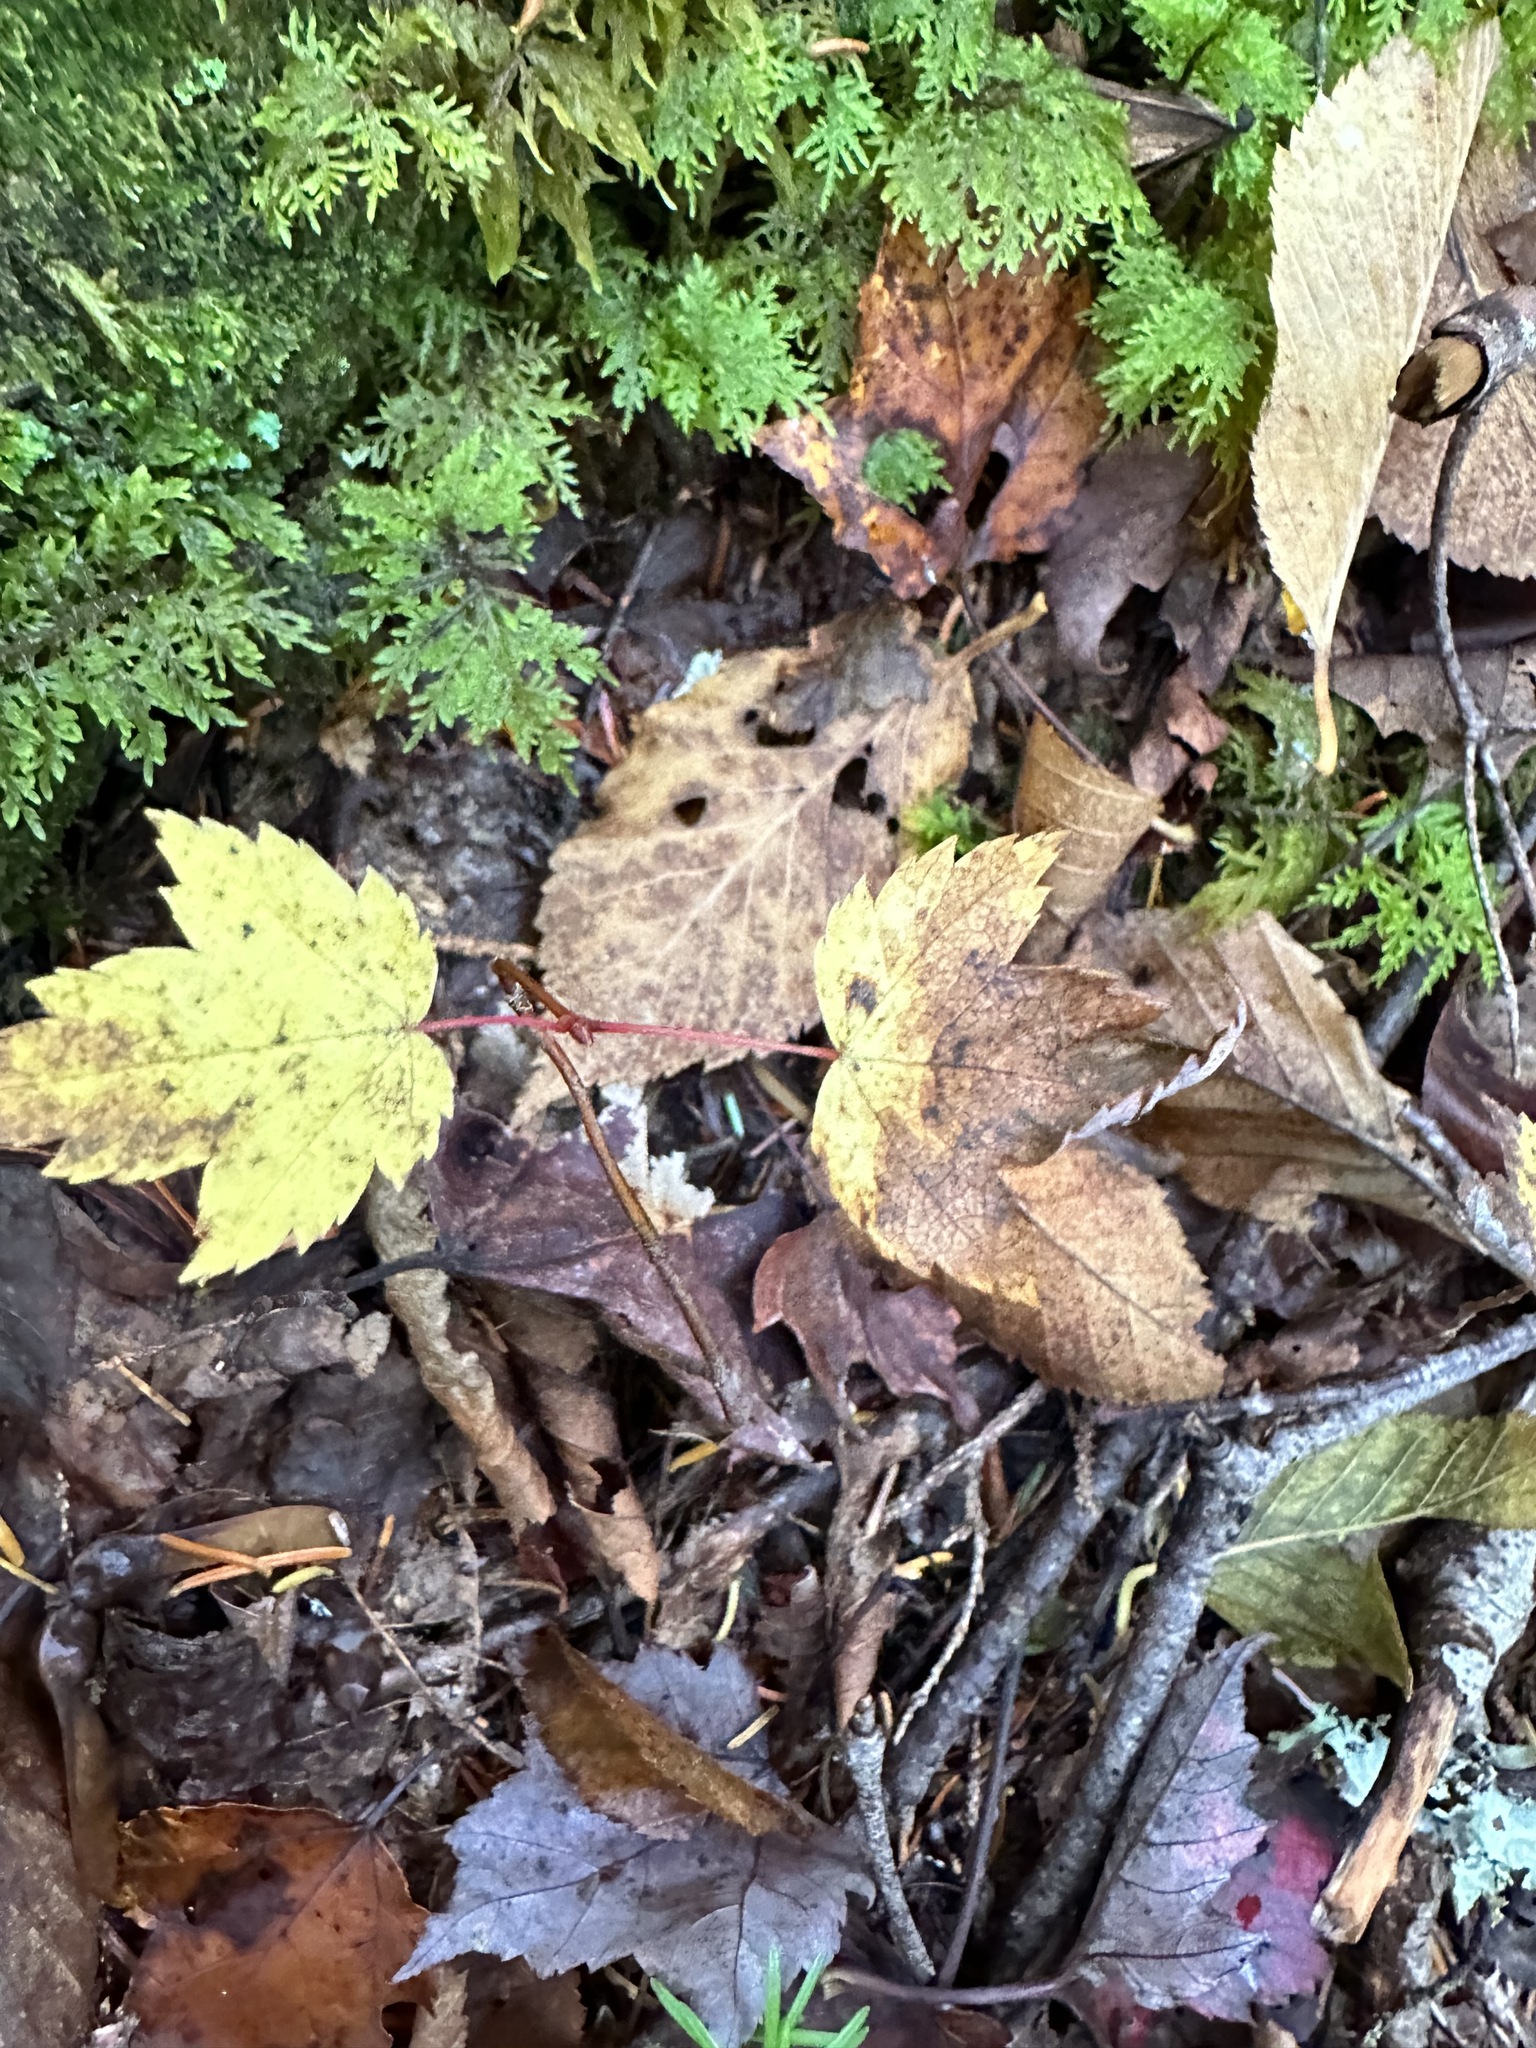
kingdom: Plantae
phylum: Tracheophyta
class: Magnoliopsida
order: Sapindales
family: Sapindaceae
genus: Acer
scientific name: Acer rubrum
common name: Red maple
